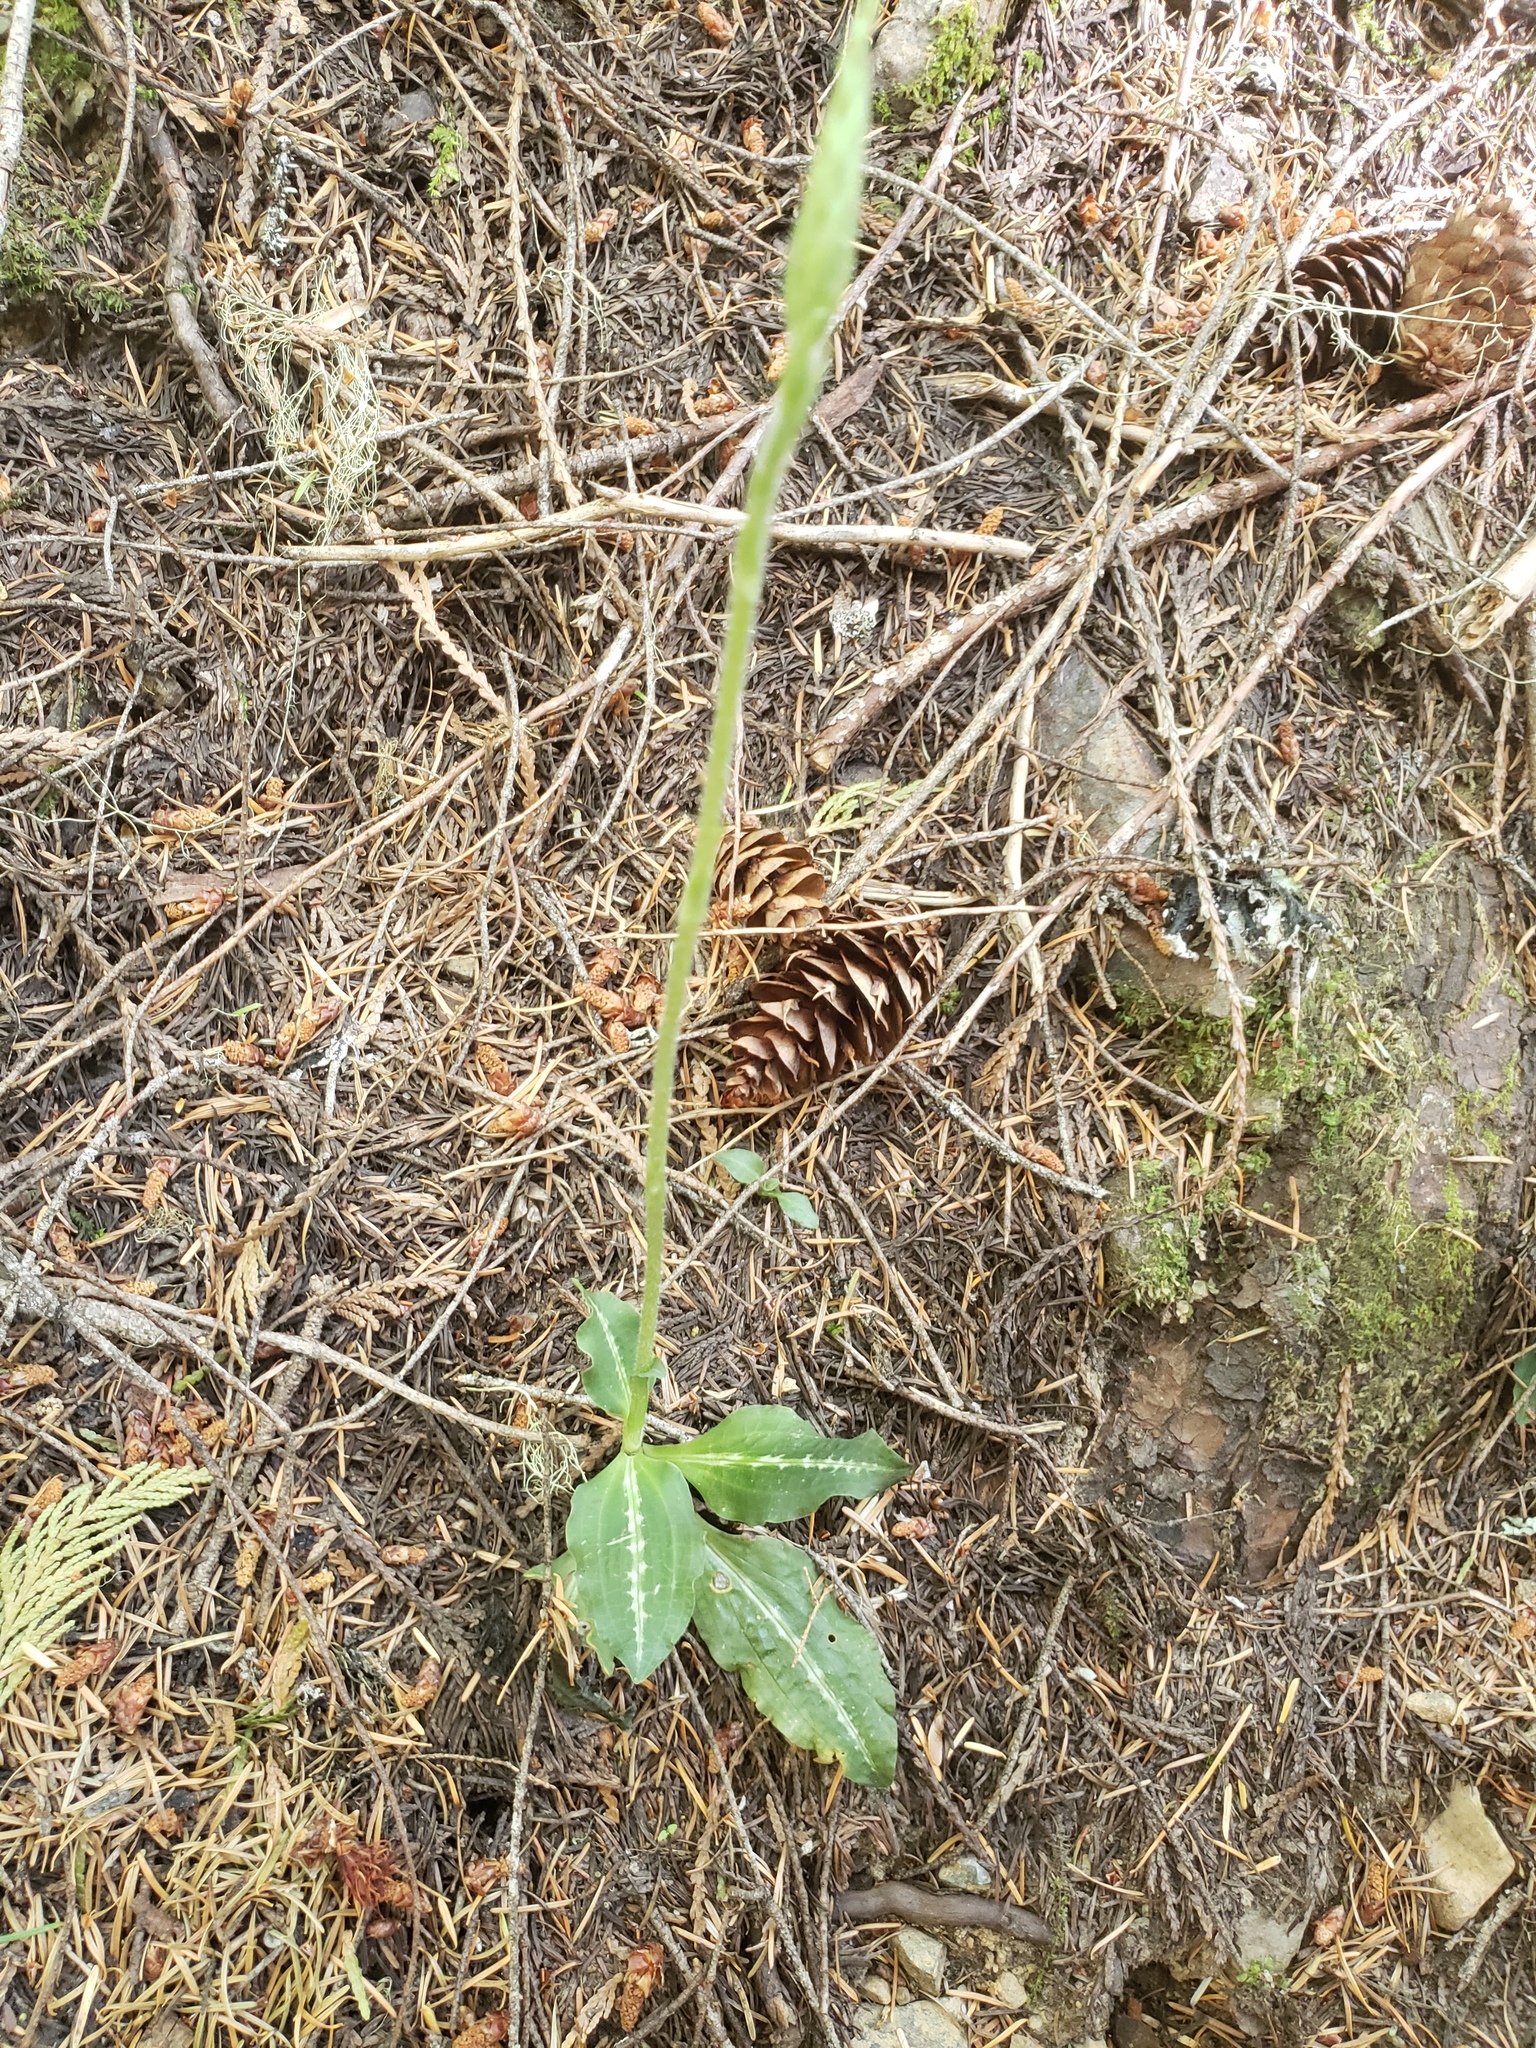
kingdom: Plantae
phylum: Tracheophyta
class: Liliopsida
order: Asparagales
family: Orchidaceae
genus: Goodyera
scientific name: Goodyera oblongifolia
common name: Giant rattlesnake-plantain
